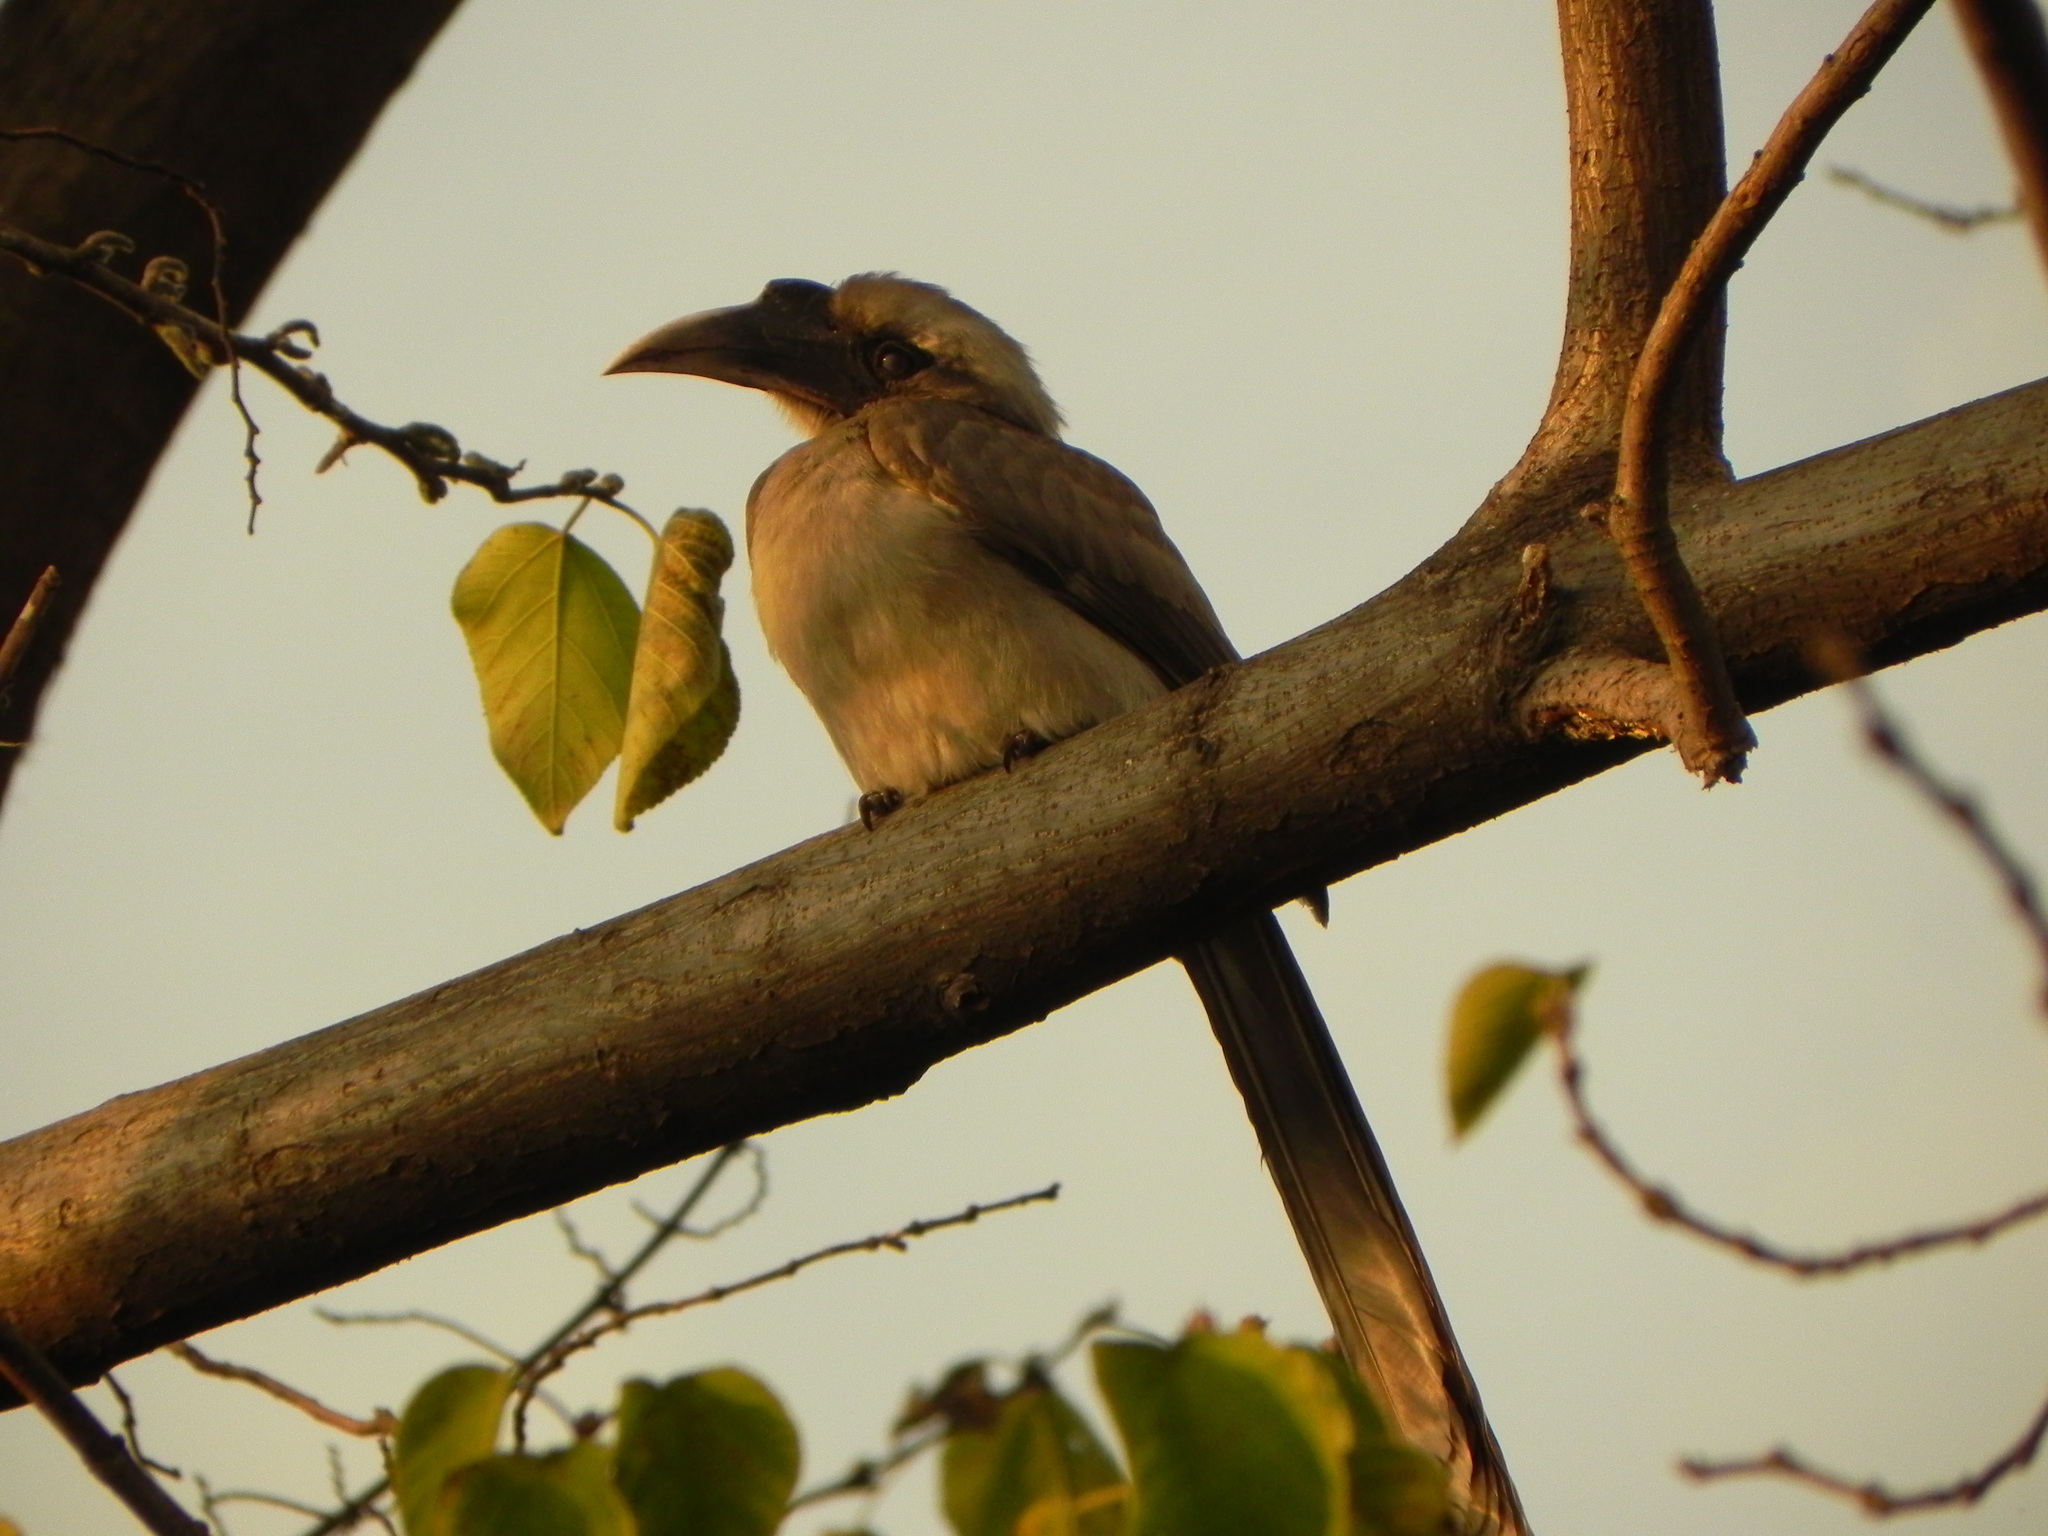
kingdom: Animalia
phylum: Chordata
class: Aves
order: Bucerotiformes
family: Bucerotidae
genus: Ocyceros
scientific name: Ocyceros birostris
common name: Indian grey hornbill
